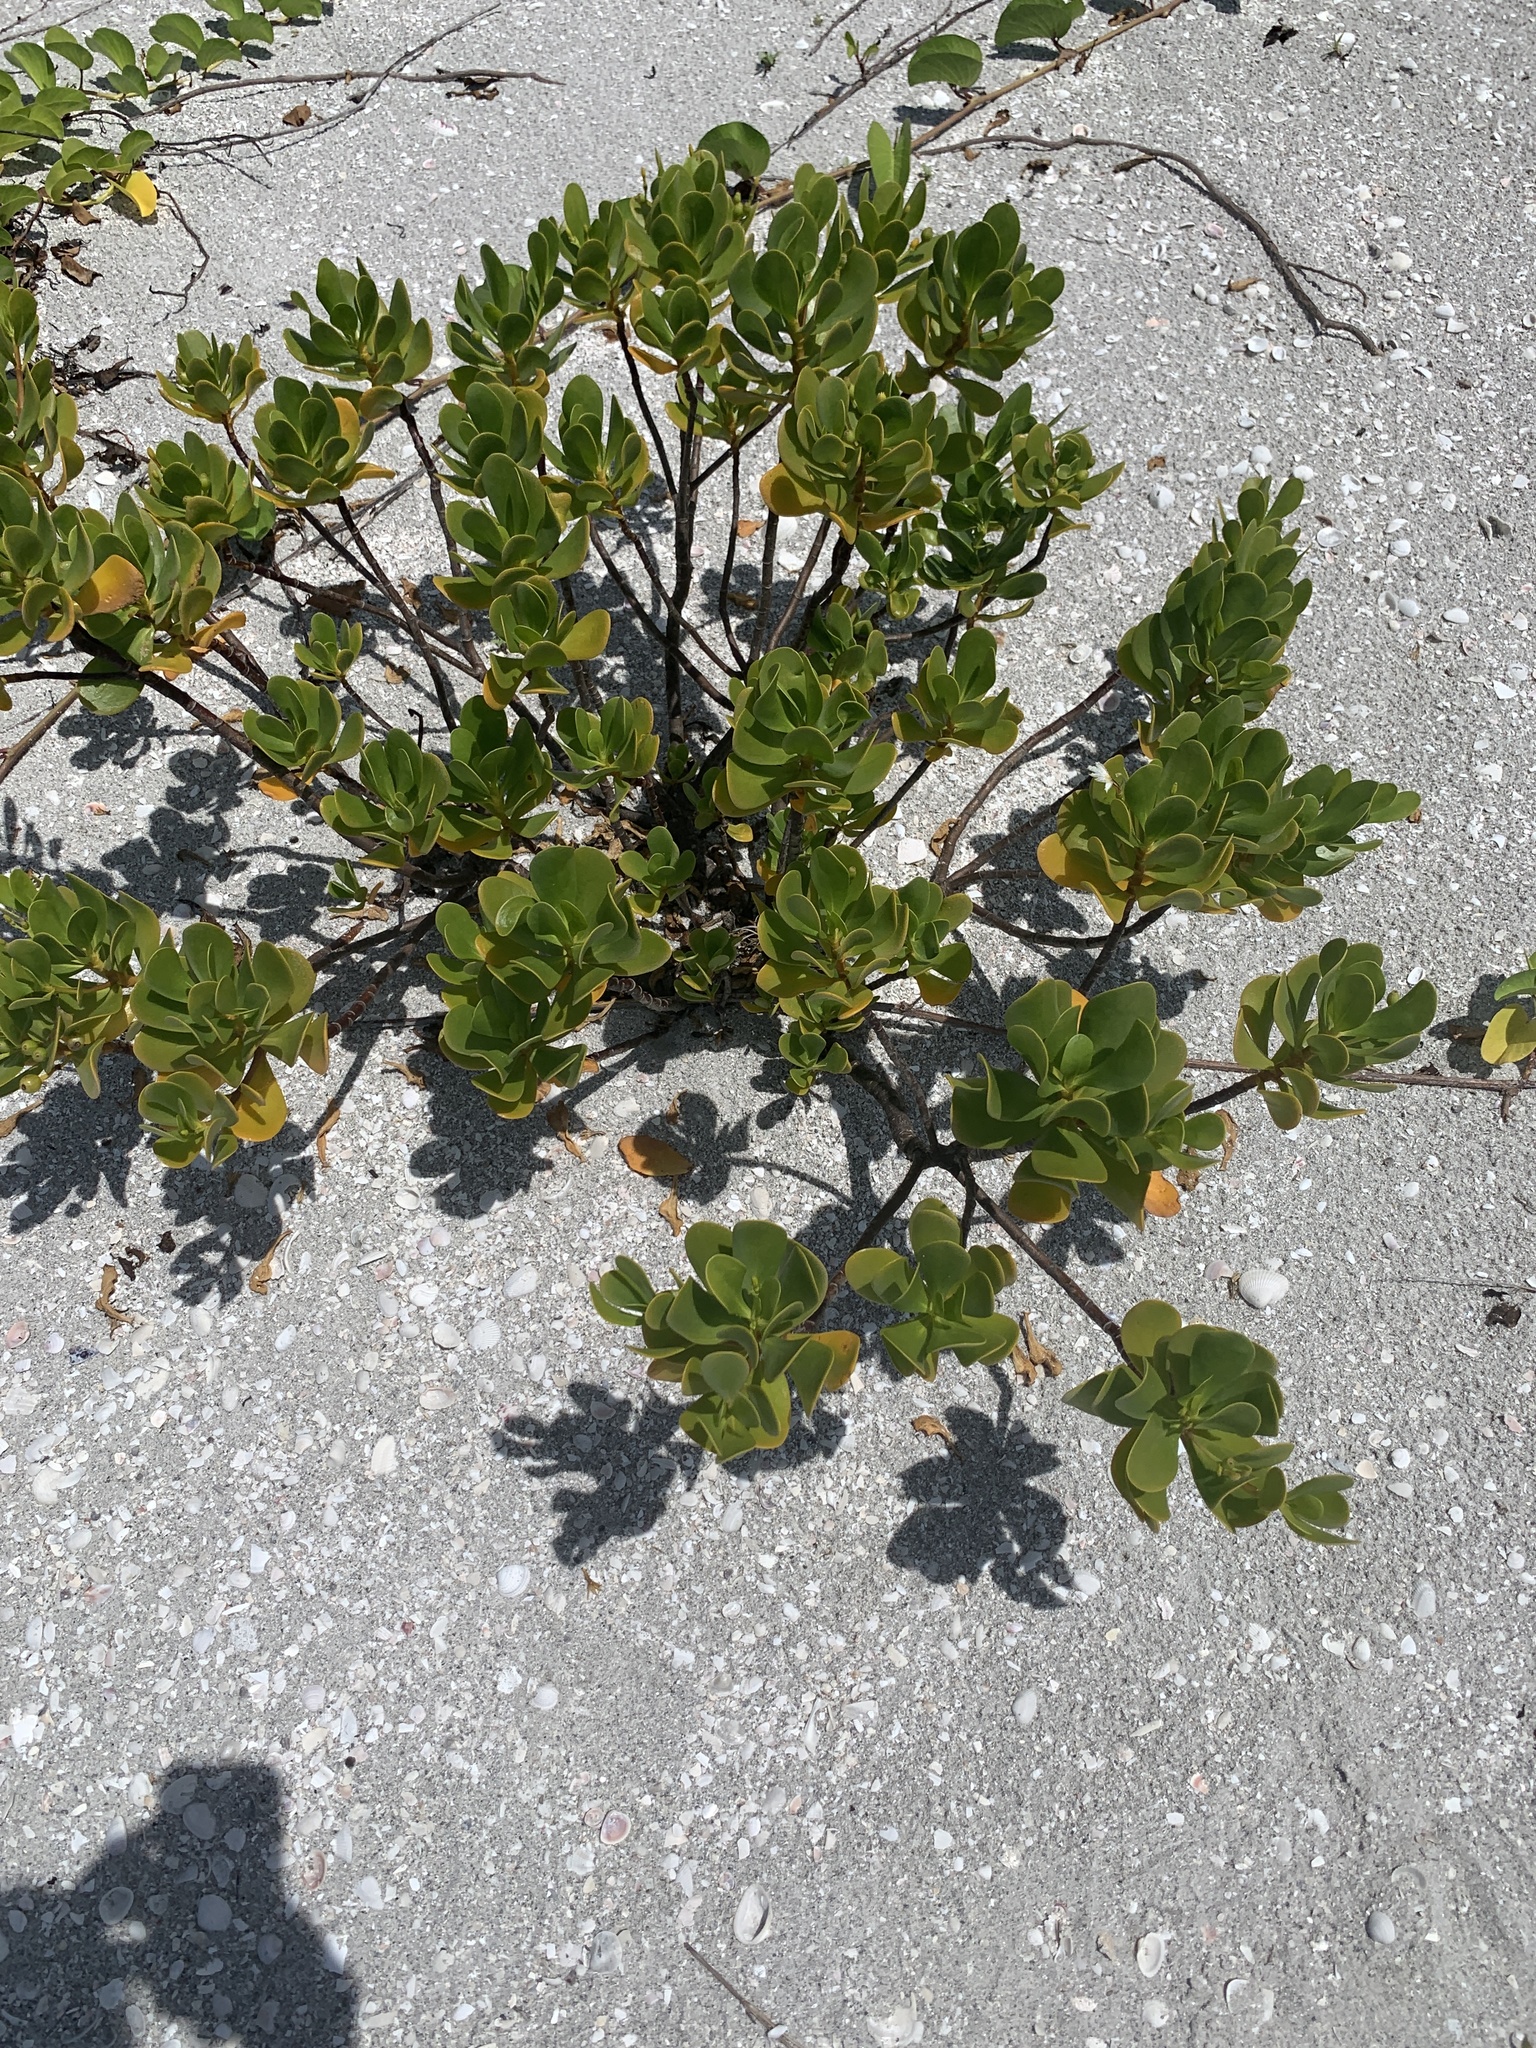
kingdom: Plantae
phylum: Tracheophyta
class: Magnoliopsida
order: Asterales
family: Goodeniaceae
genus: Scaevola
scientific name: Scaevola plumieri
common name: Gull feed
